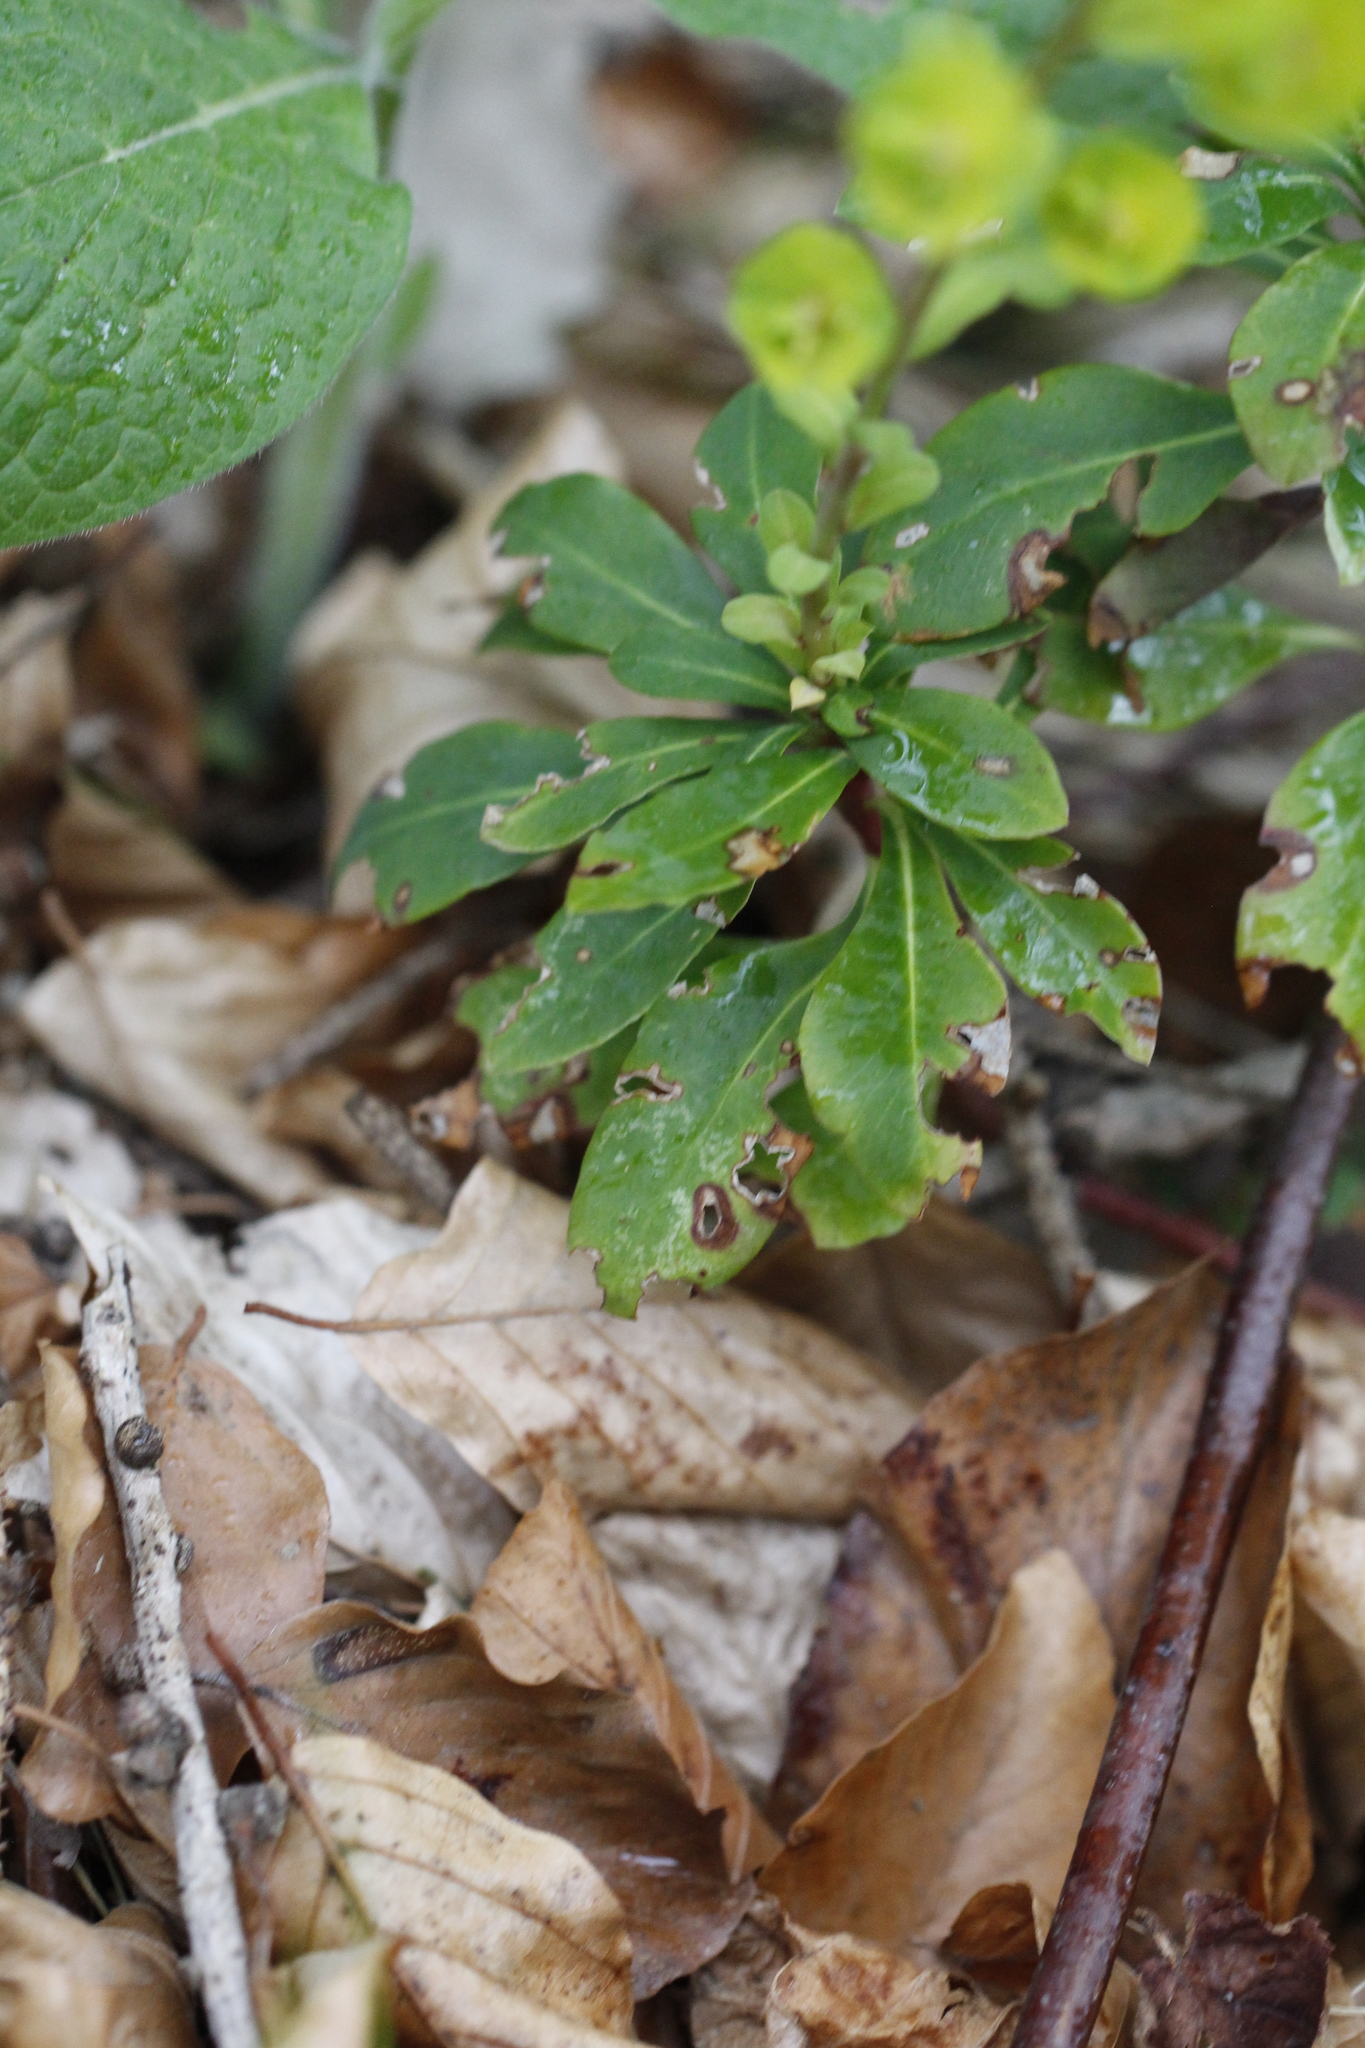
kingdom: Plantae
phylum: Tracheophyta
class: Magnoliopsida
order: Malpighiales
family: Euphorbiaceae
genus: Euphorbia
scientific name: Euphorbia amygdaloides
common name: Wood spurge
